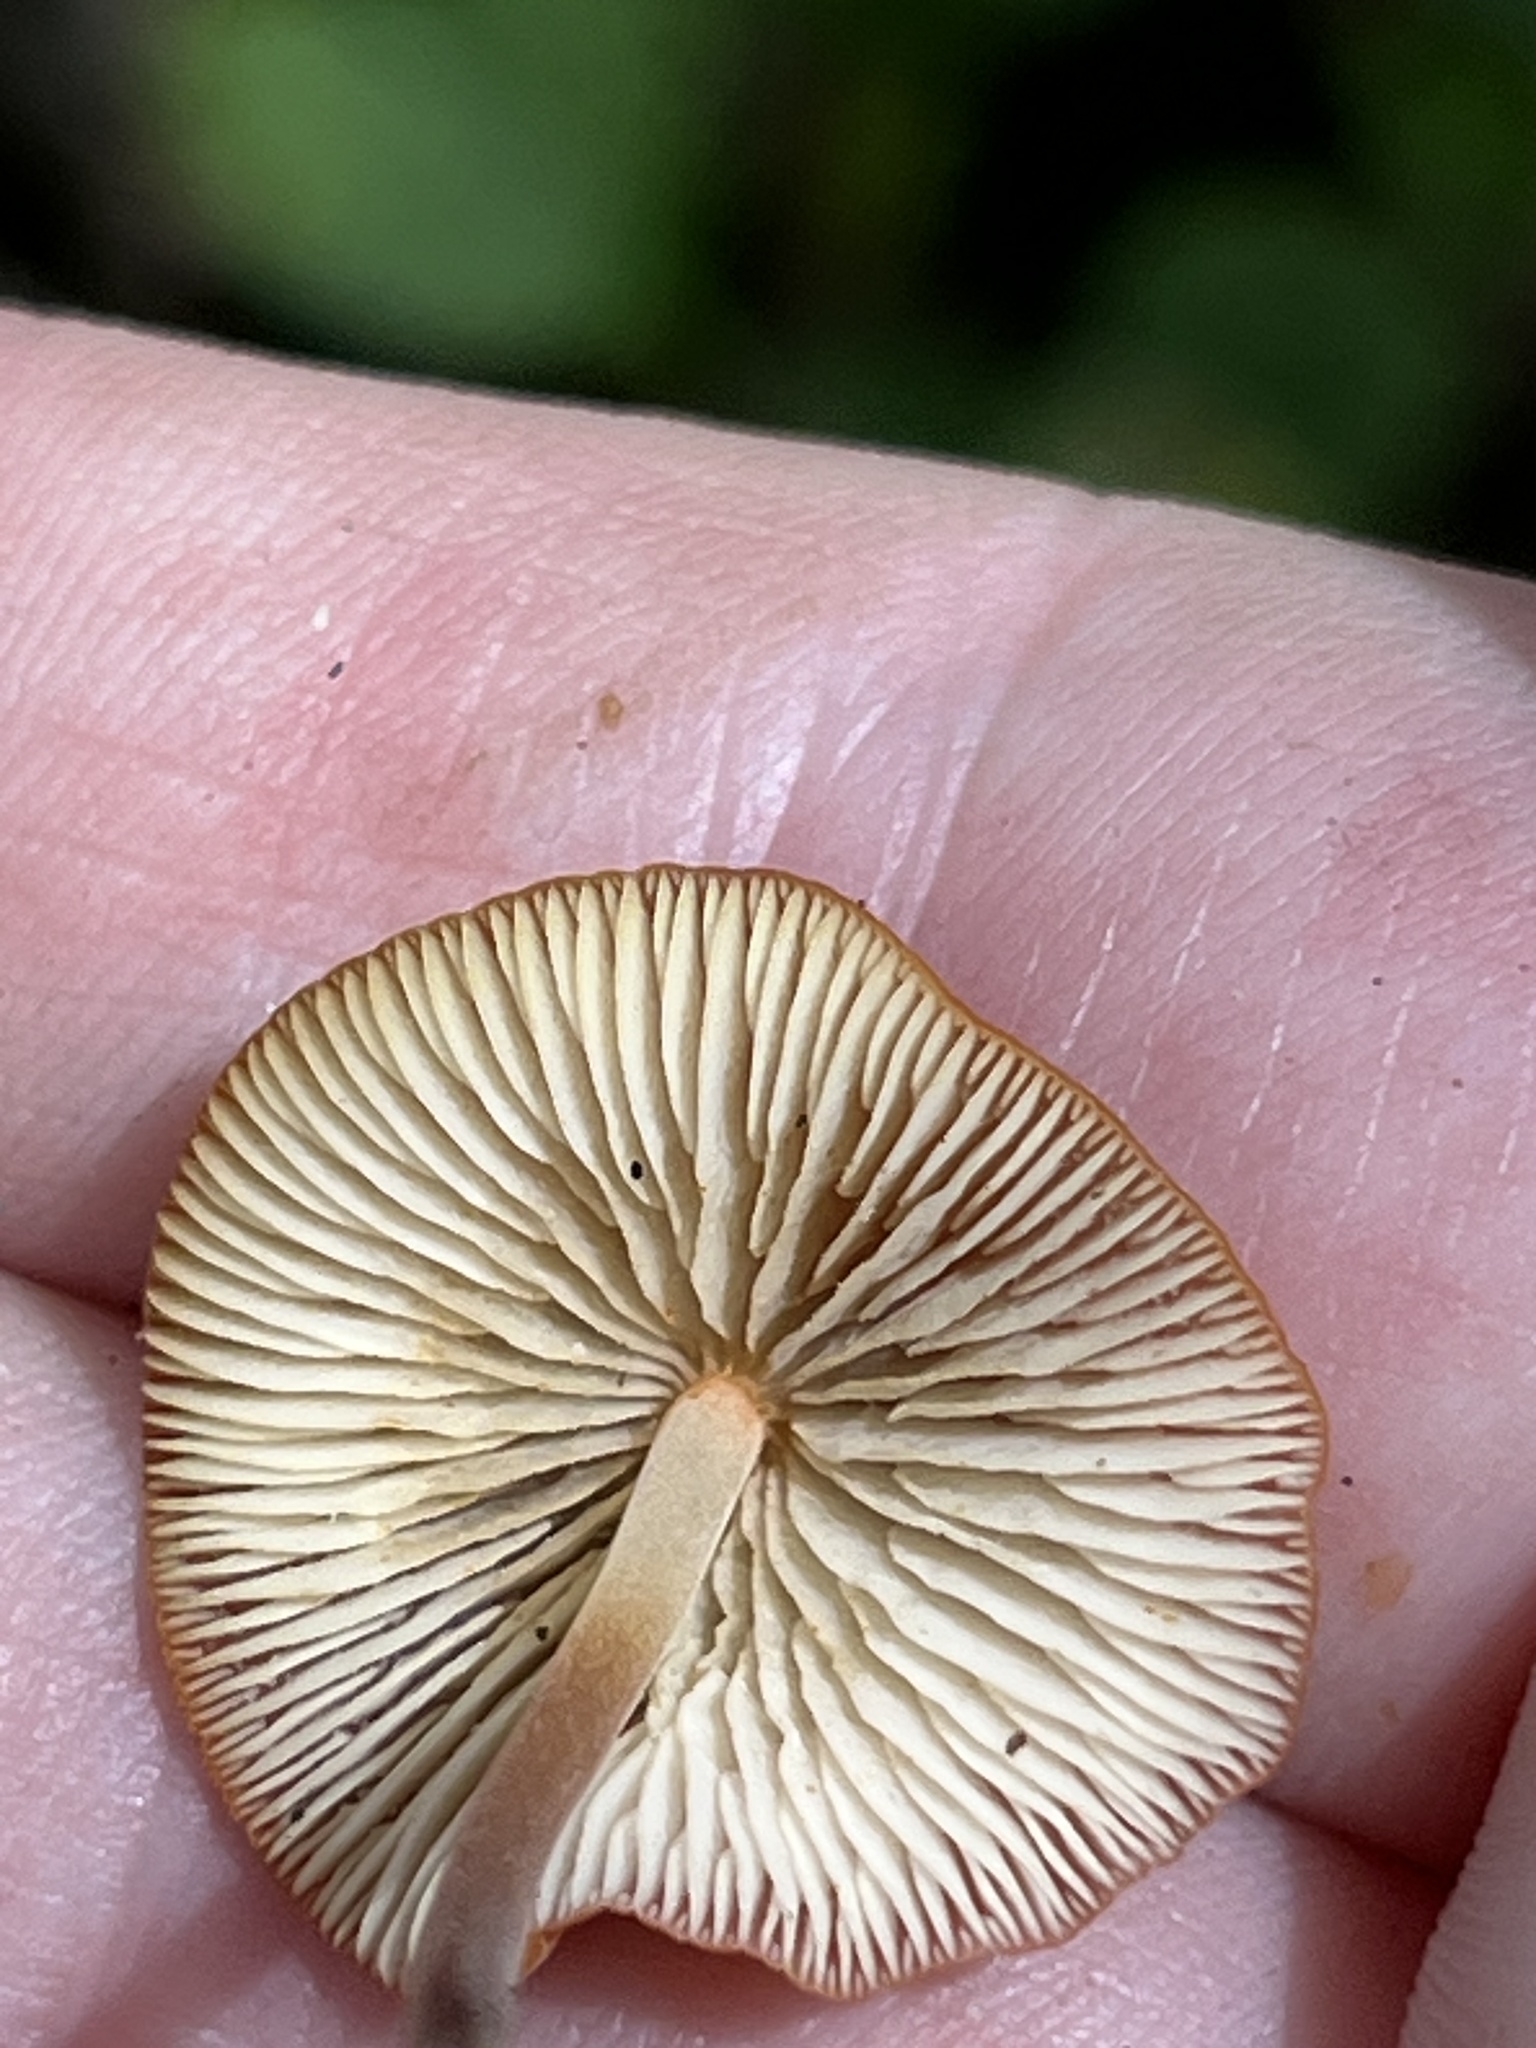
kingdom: Fungi
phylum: Basidiomycota
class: Agaricomycetes
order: Agaricales
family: Marasmiaceae
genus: Marasmius
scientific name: Marasmius sullivantii
